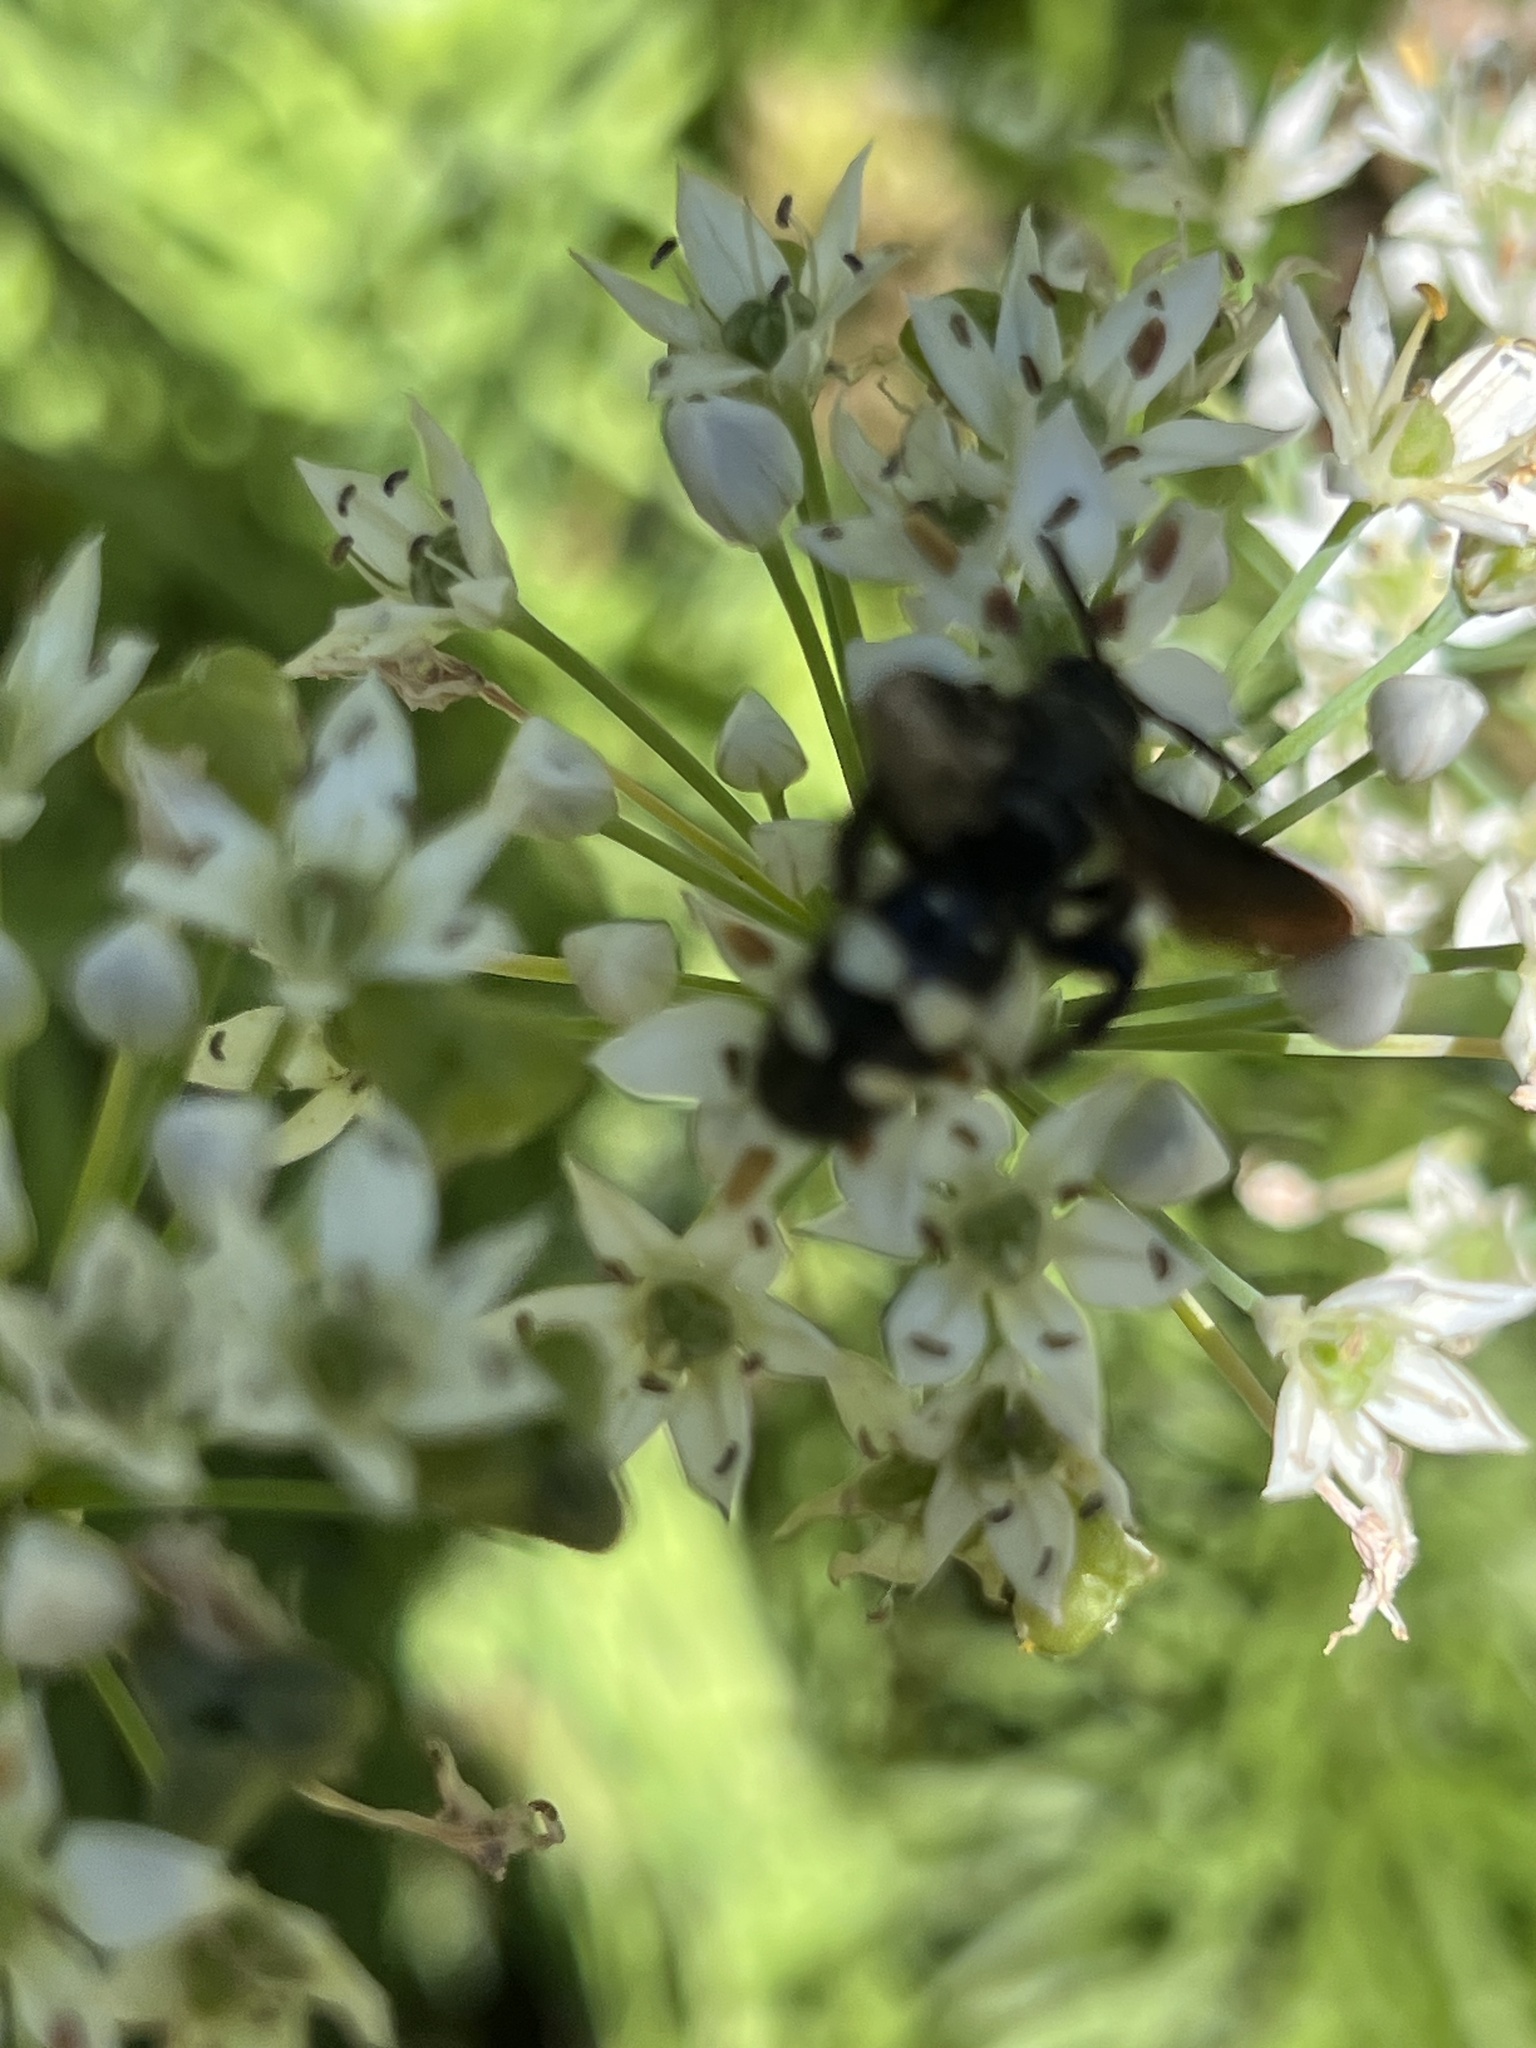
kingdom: Animalia
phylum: Arthropoda
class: Insecta
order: Hymenoptera
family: Scoliidae
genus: Scolia
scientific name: Scolia bicincta
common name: Double-banded scoliid wasp
